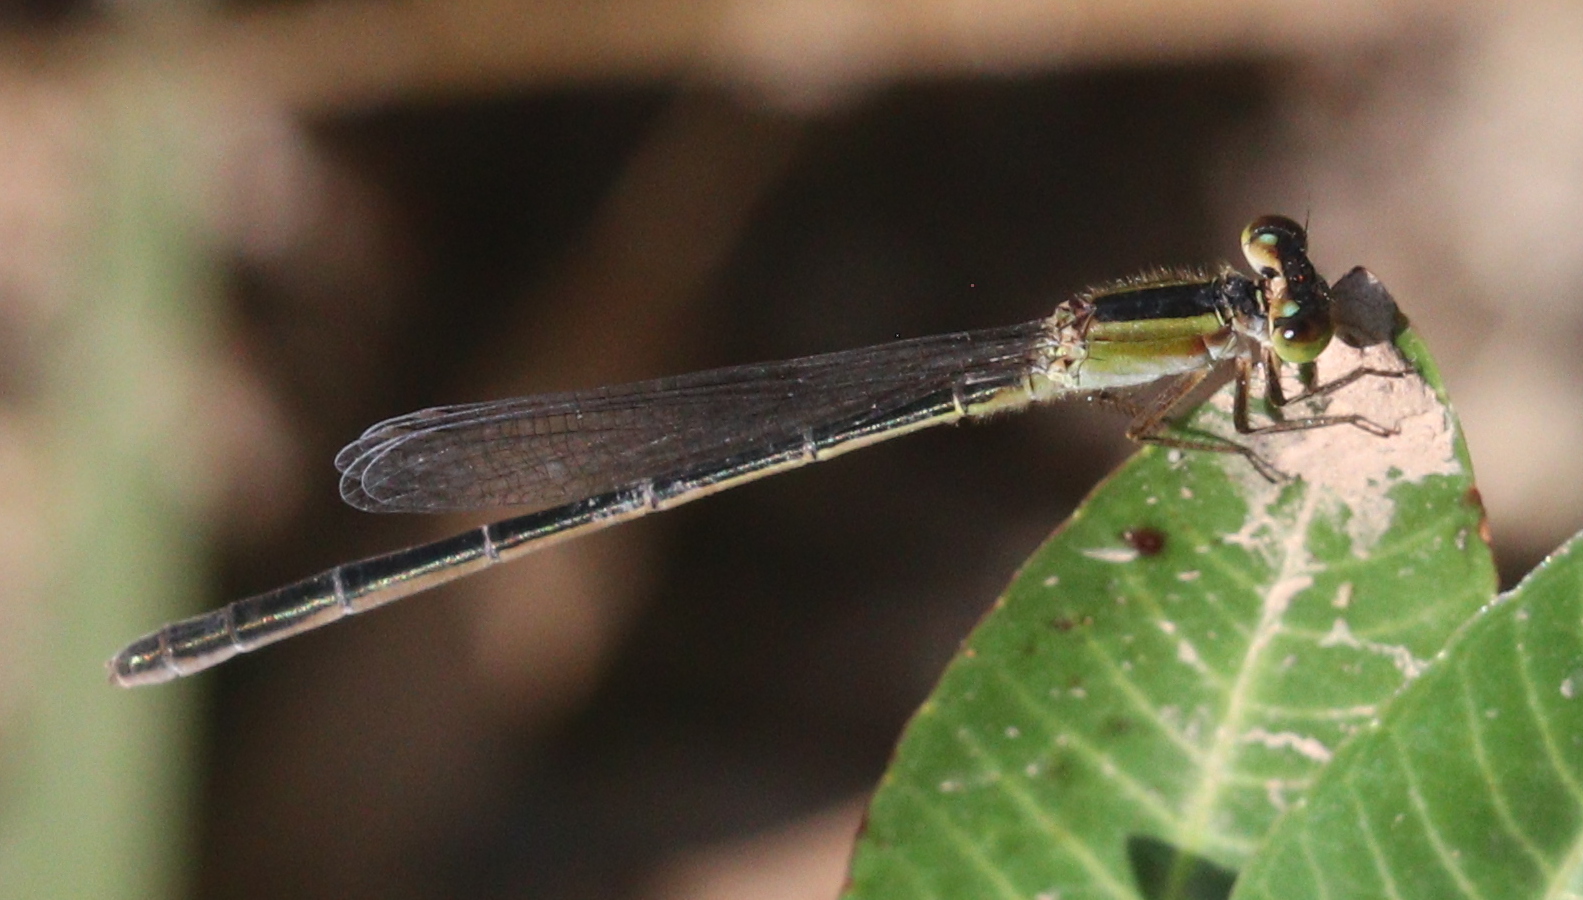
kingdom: Animalia
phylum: Arthropoda
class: Insecta
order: Odonata
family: Coenagrionidae
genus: Ischnura
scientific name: Ischnura ramburii
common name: Rambur's forktail
